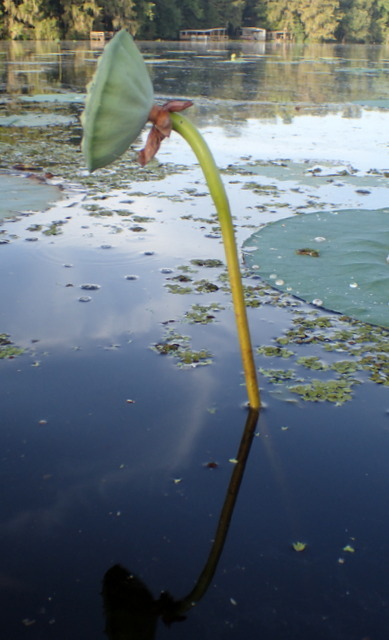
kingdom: Plantae
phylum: Tracheophyta
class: Magnoliopsida
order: Proteales
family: Nelumbonaceae
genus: Nelumbo
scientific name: Nelumbo lutea
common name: American lotus
